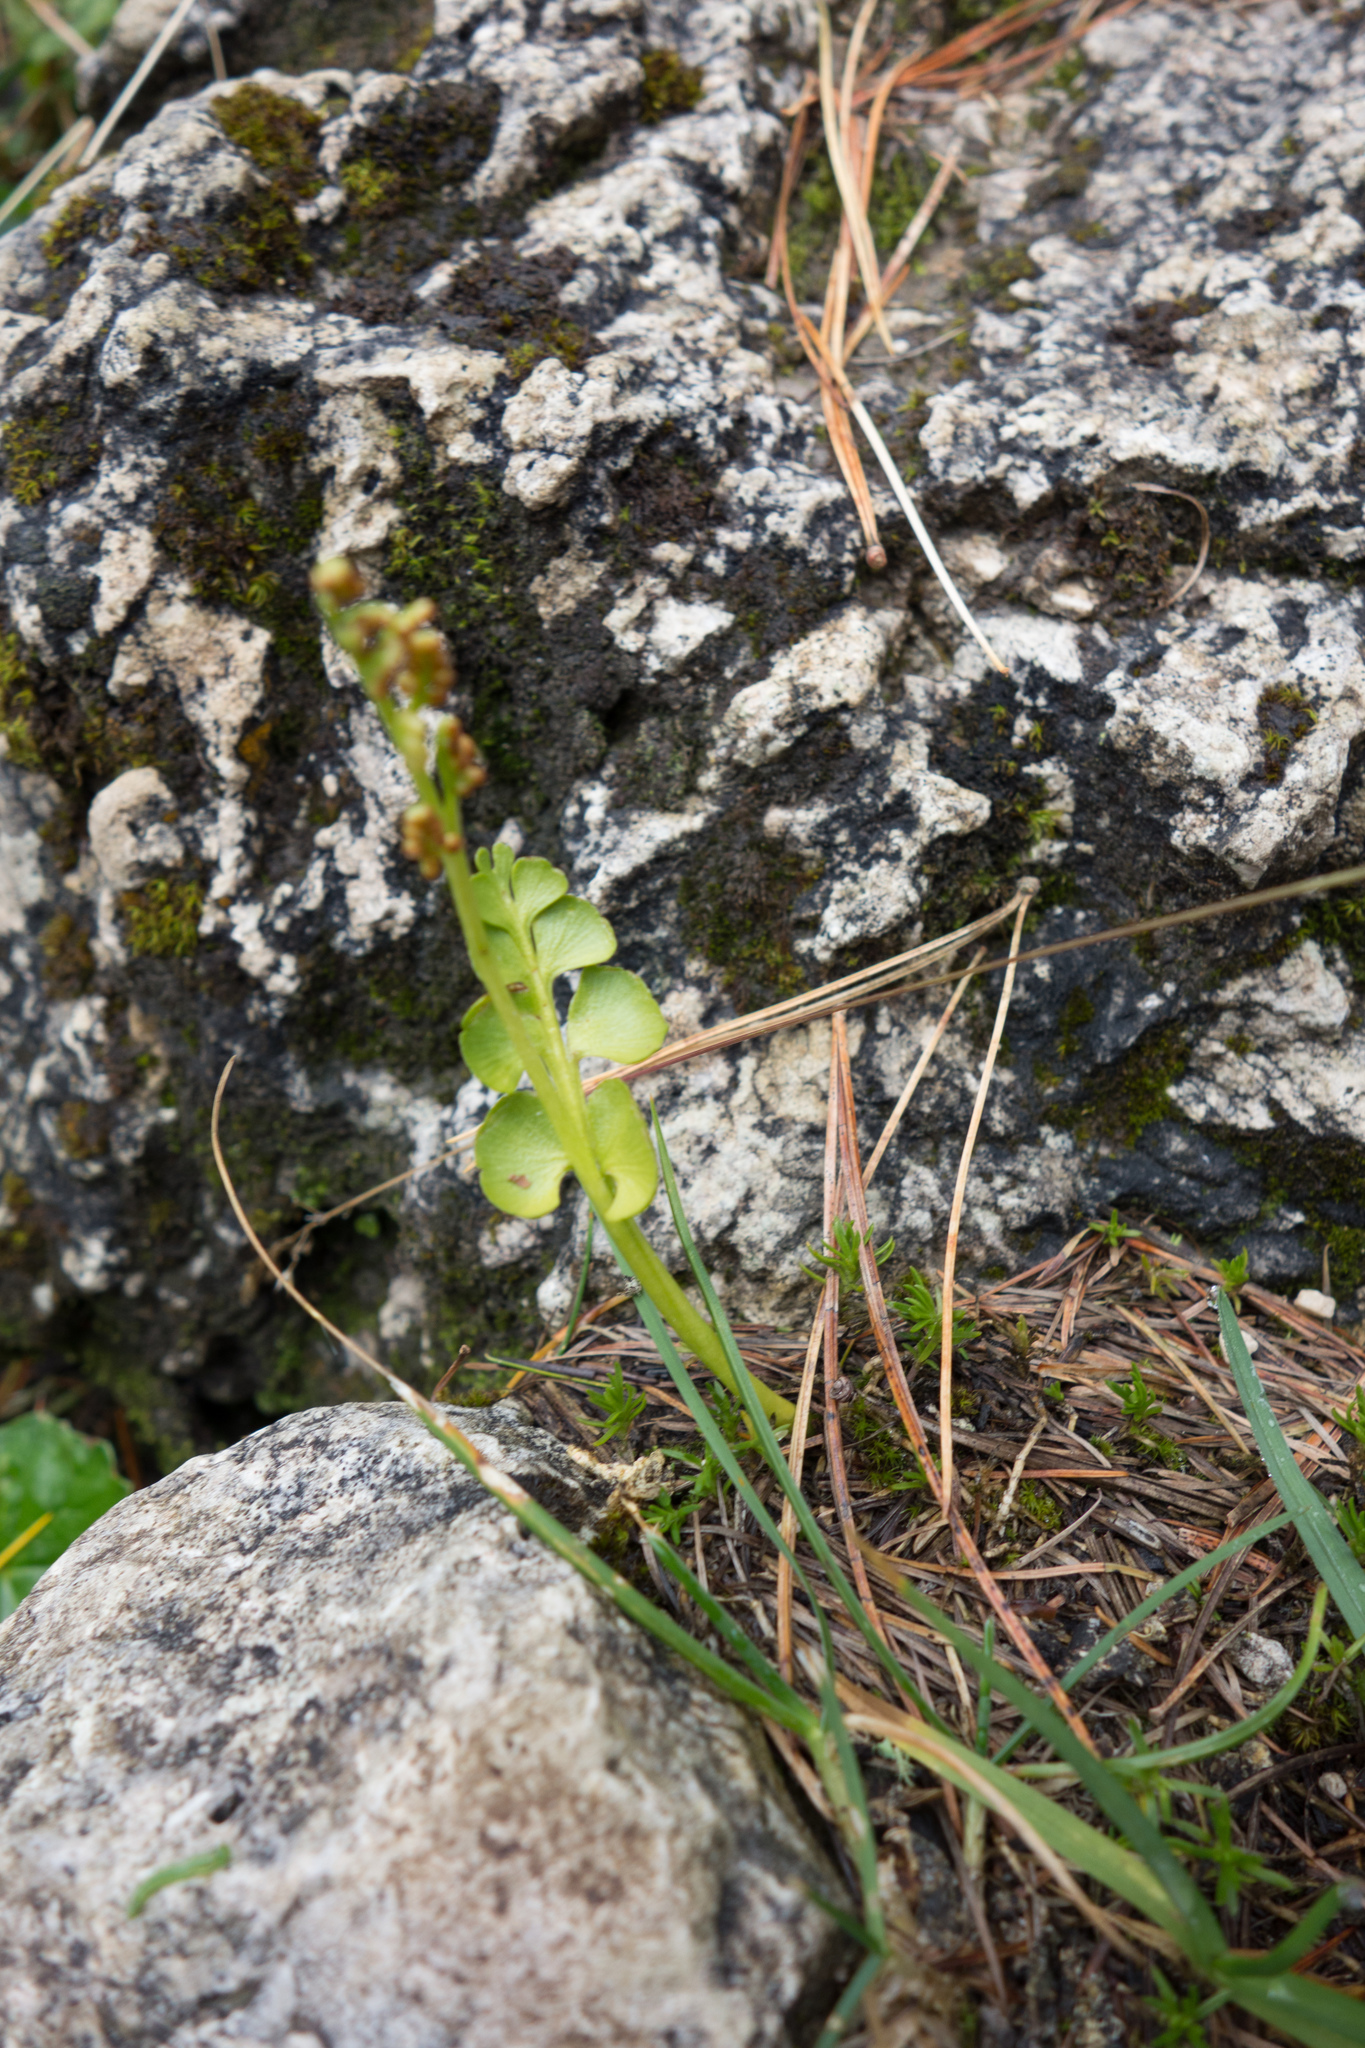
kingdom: Plantae
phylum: Tracheophyta
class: Polypodiopsida
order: Ophioglossales
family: Ophioglossaceae
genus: Botrychium
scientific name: Botrychium lunaria
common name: Moonwort
